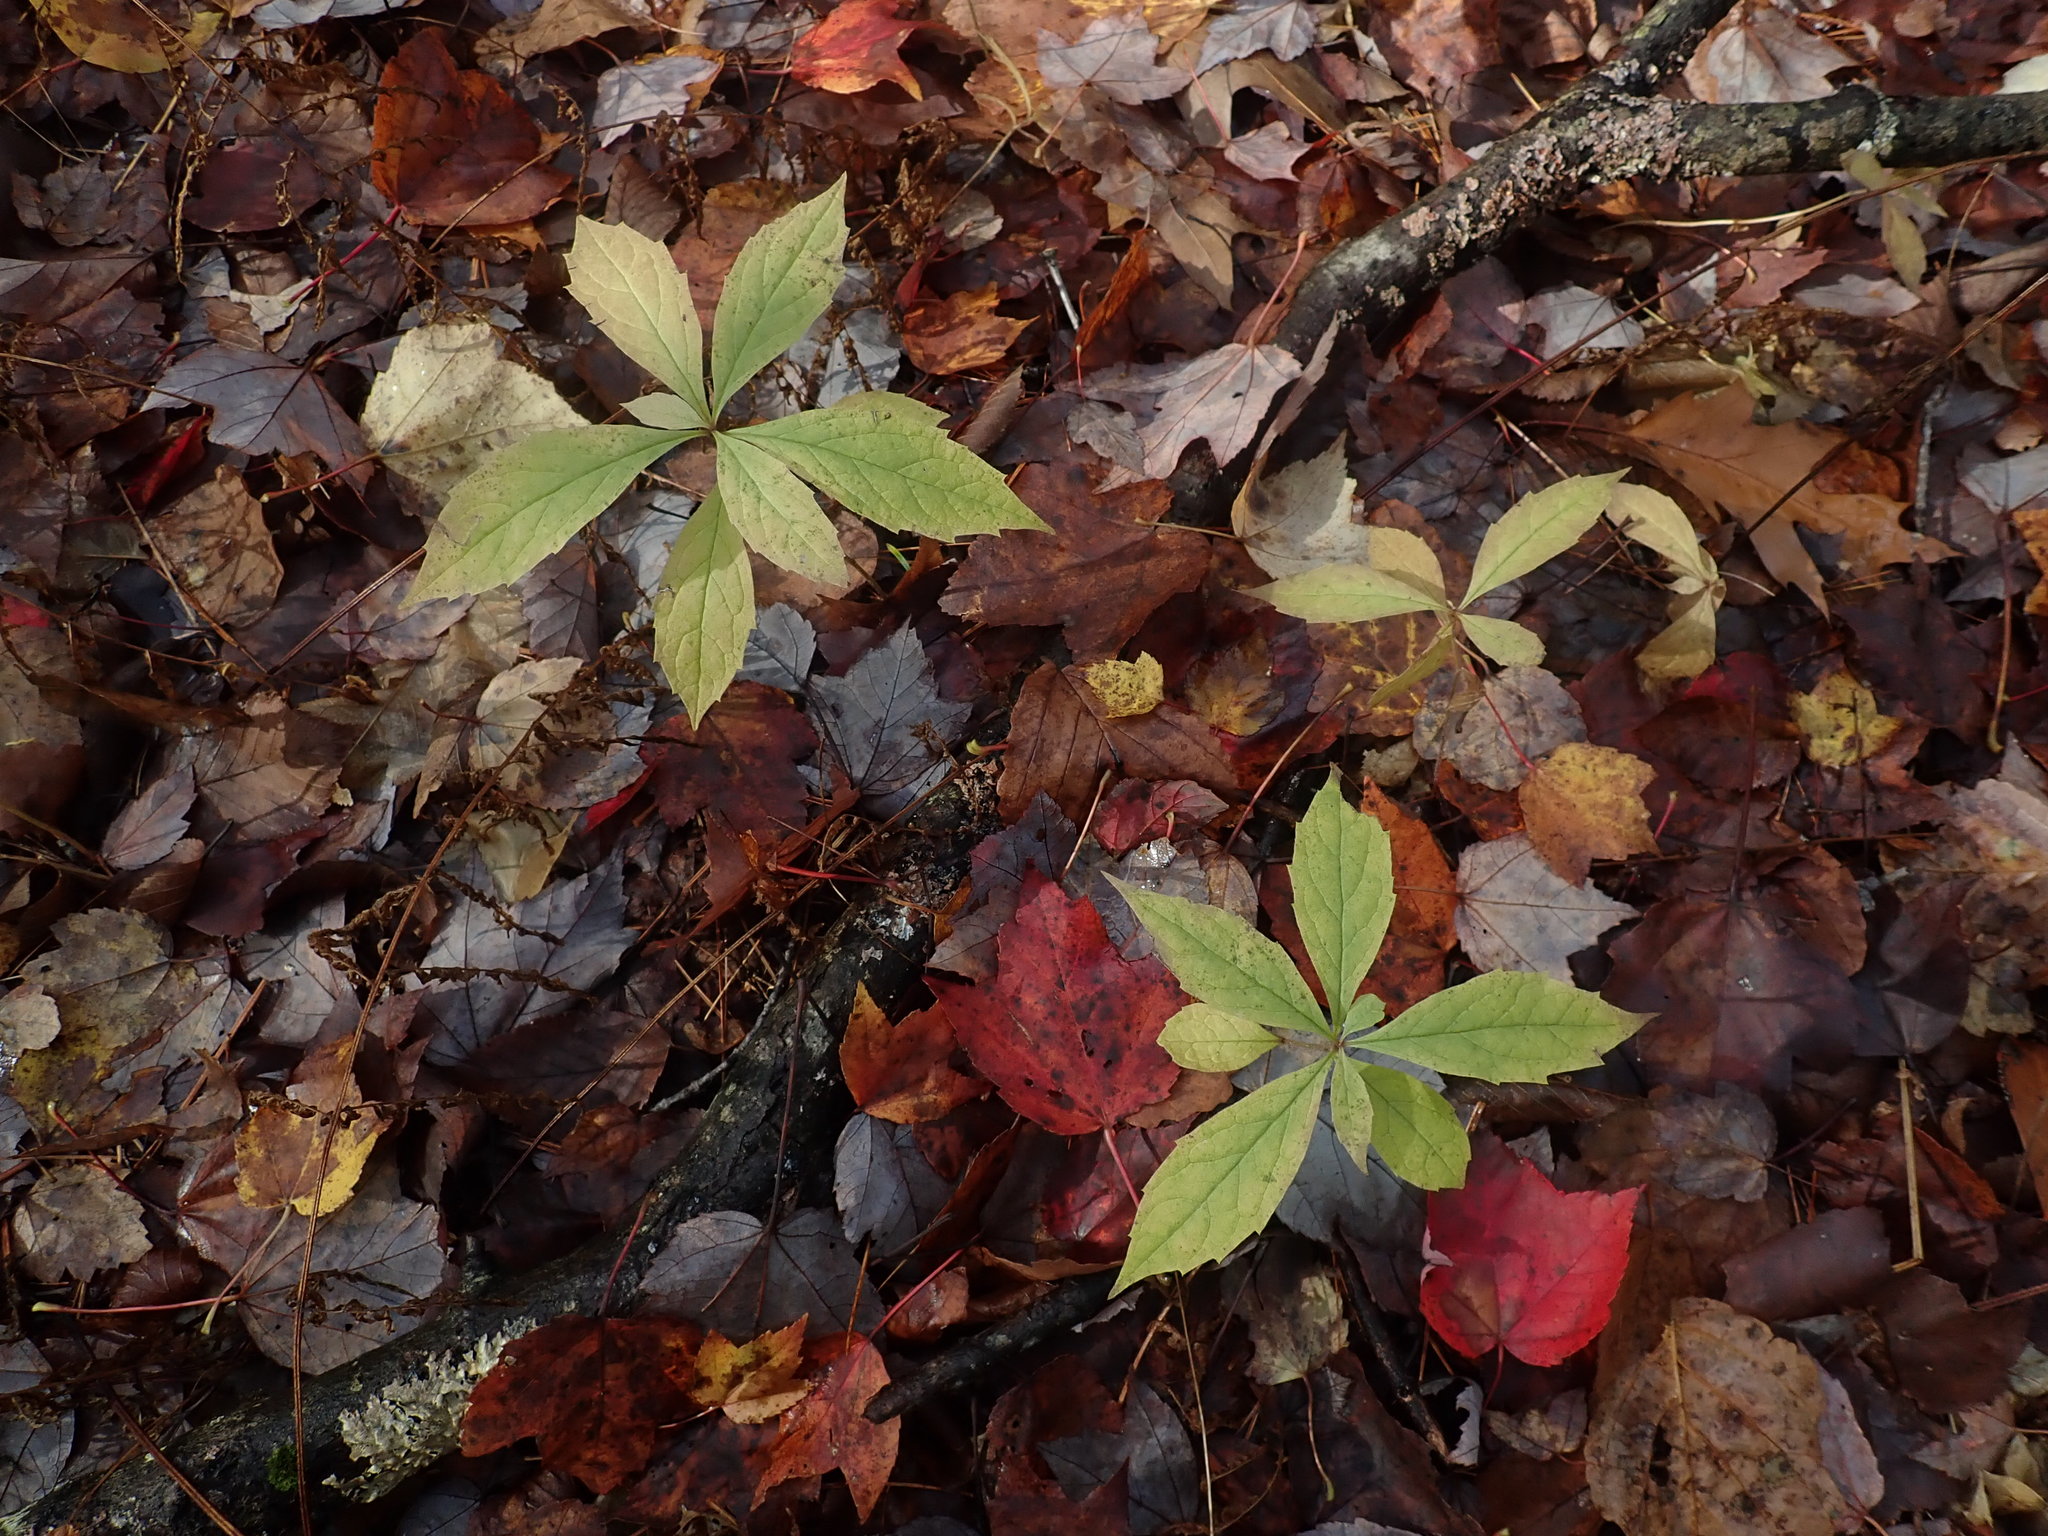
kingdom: Plantae
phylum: Tracheophyta
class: Magnoliopsida
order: Asterales
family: Asteraceae
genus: Oclemena
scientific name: Oclemena acuminata
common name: Mountain aster
